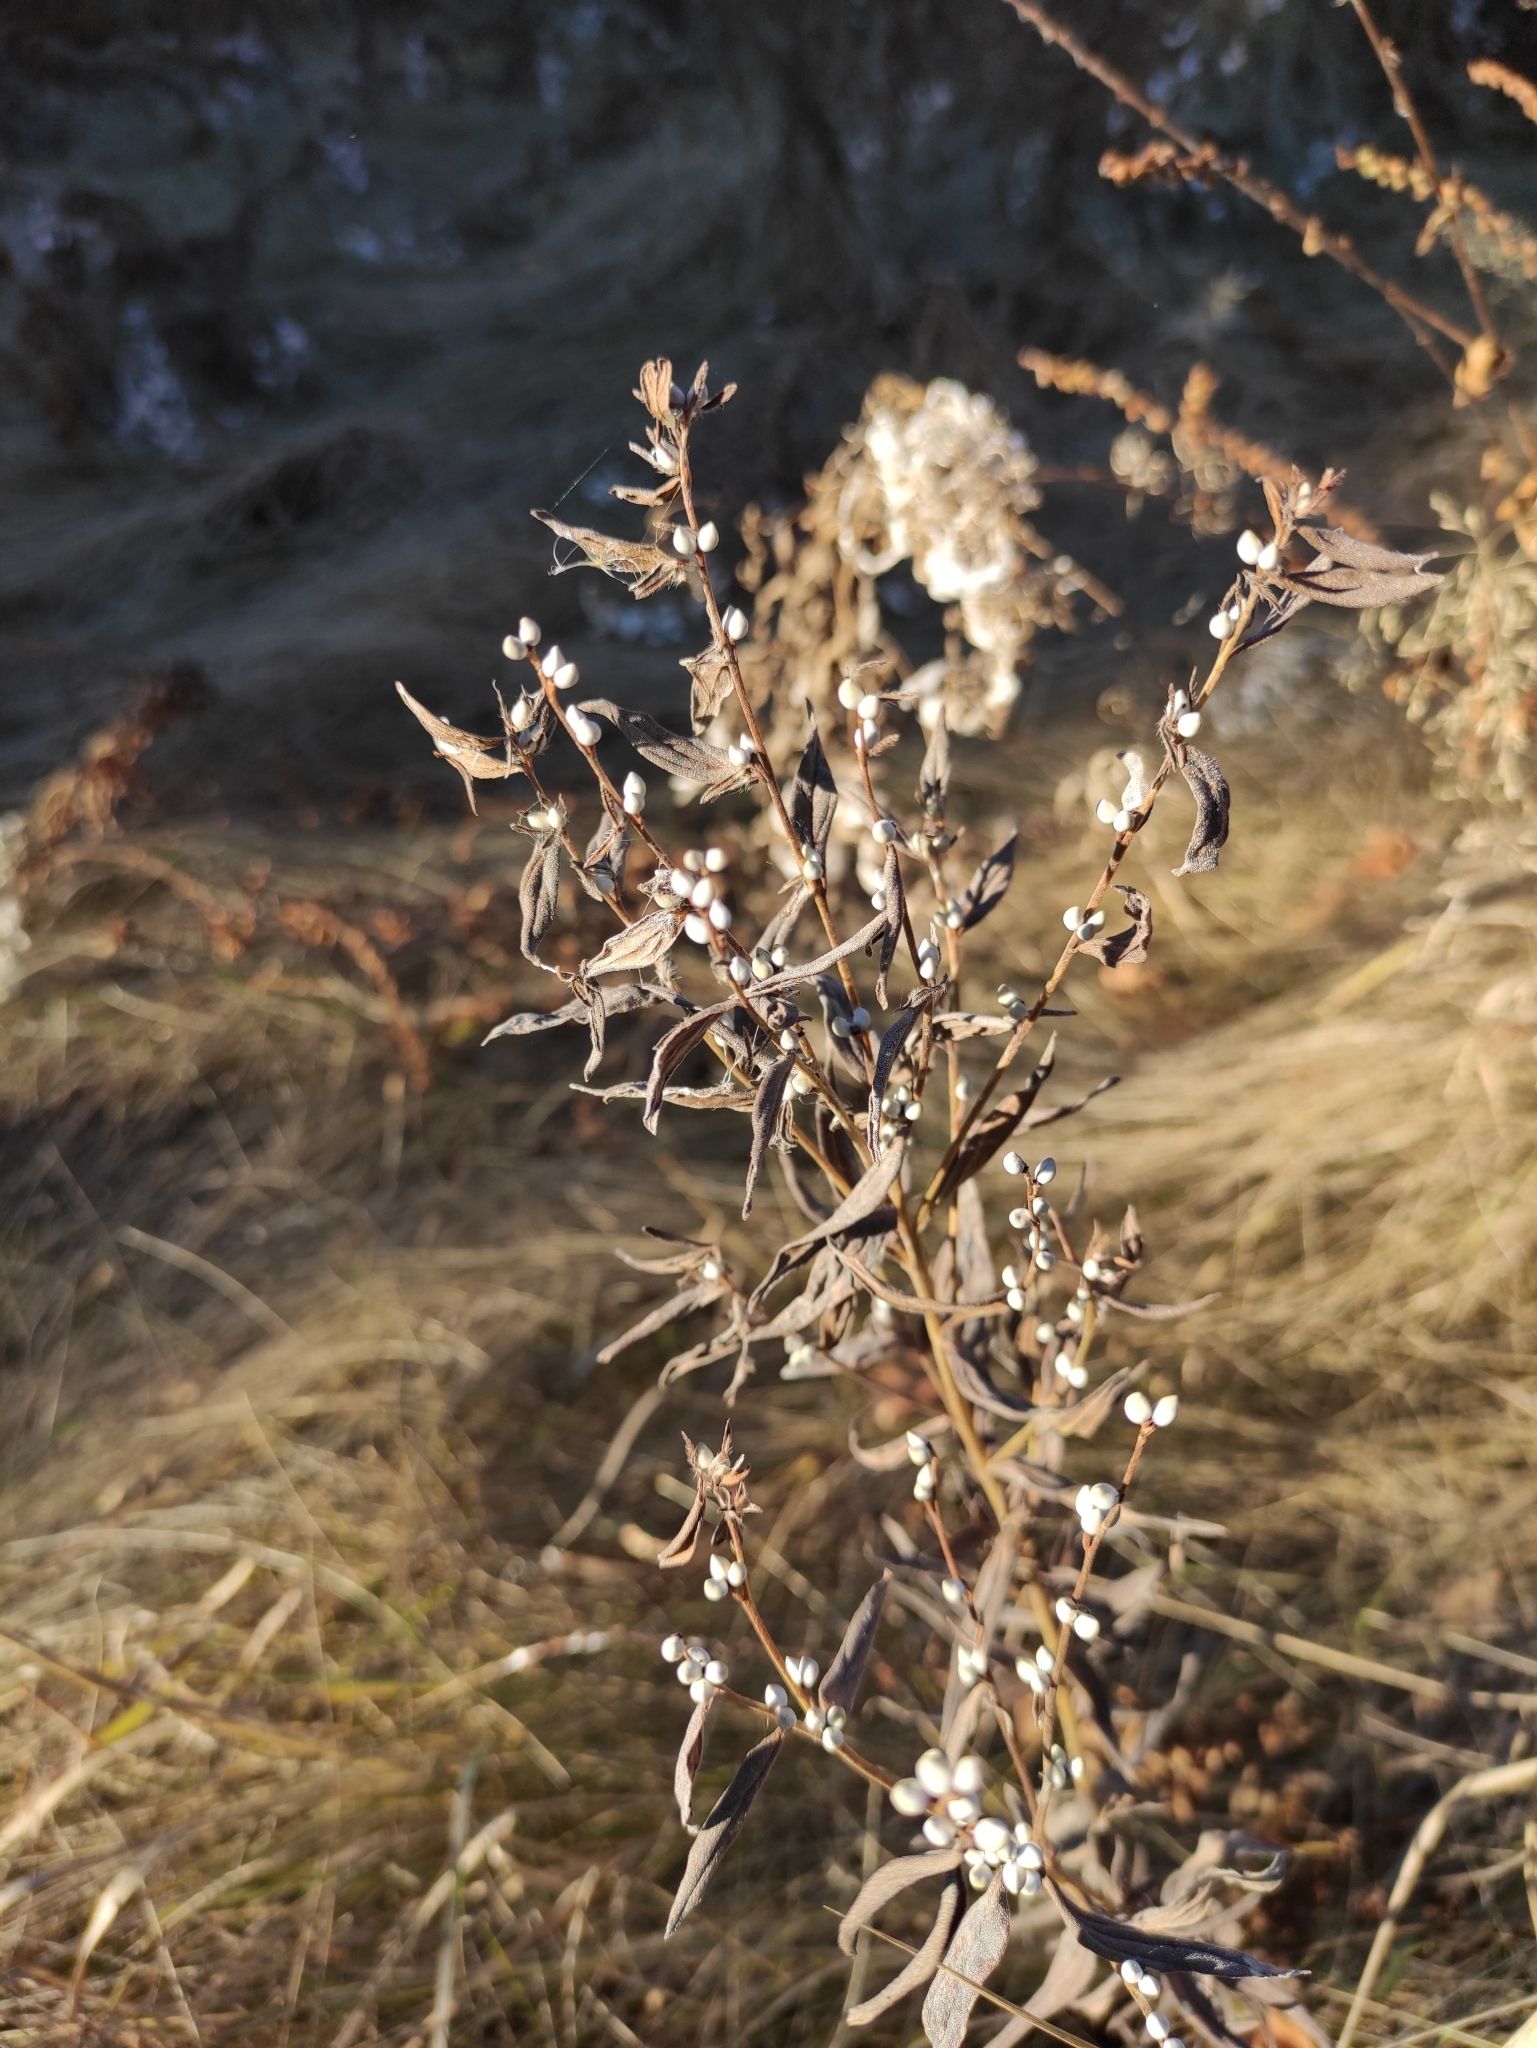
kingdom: Plantae
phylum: Tracheophyta
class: Magnoliopsida
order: Boraginales
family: Boraginaceae
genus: Lithospermum
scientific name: Lithospermum officinale
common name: Common gromwell
